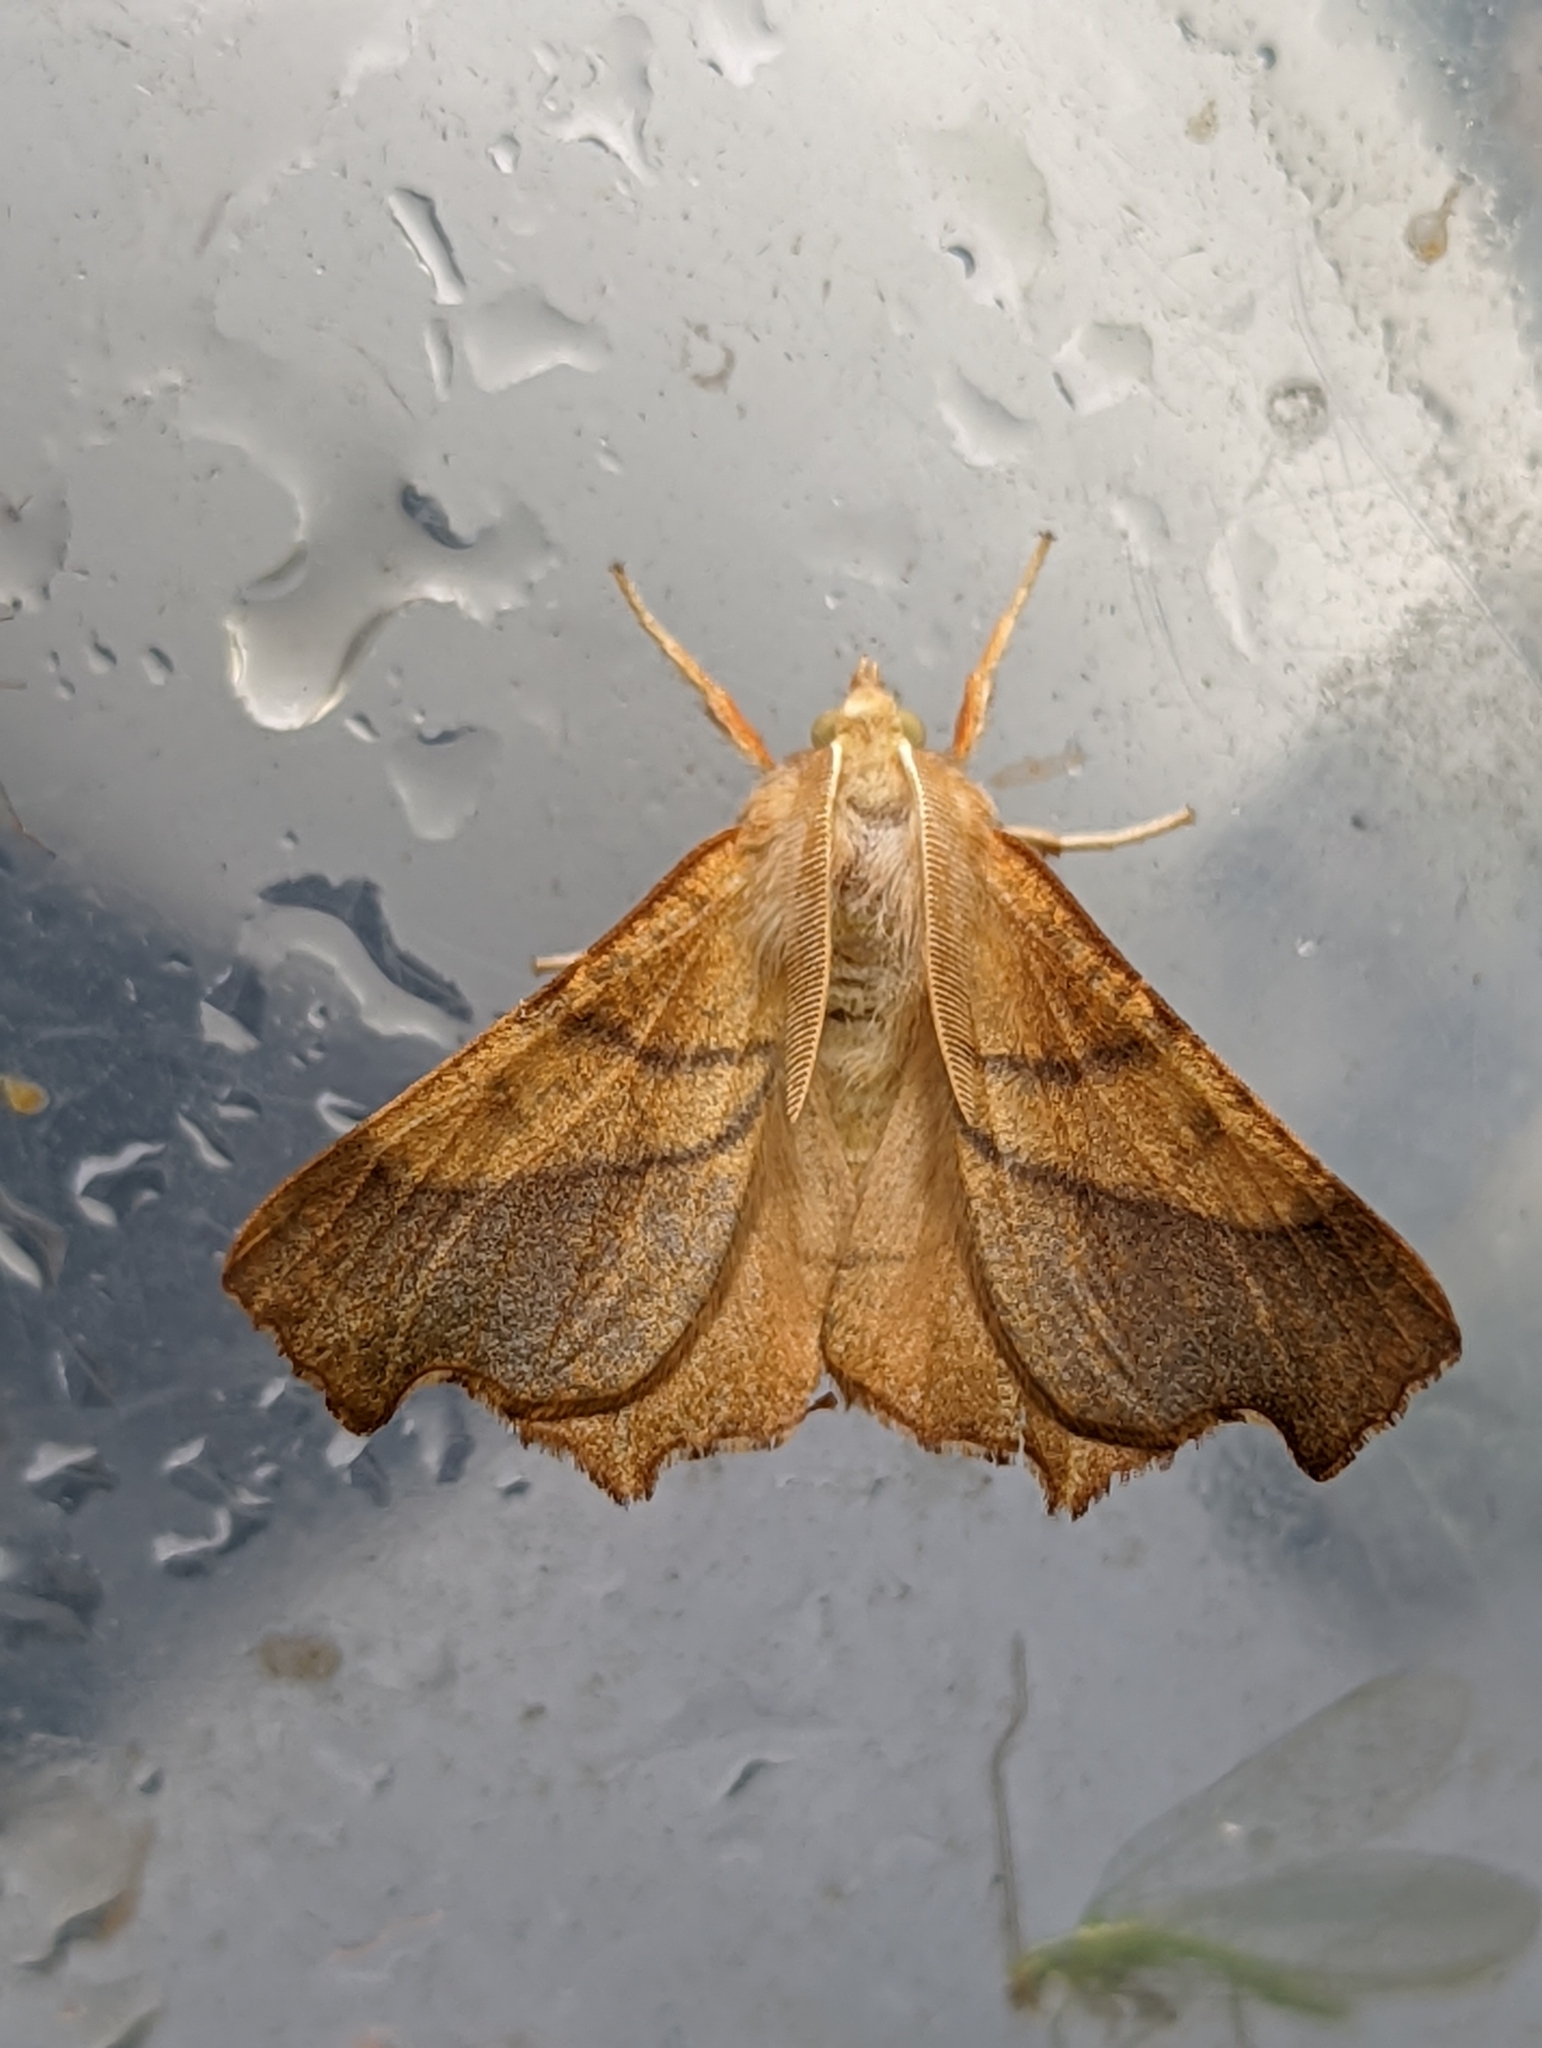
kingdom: Animalia
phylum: Arthropoda
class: Insecta
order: Lepidoptera
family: Geometridae
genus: Ennomos
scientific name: Ennomos fuscantaria
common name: Dusky thorn
